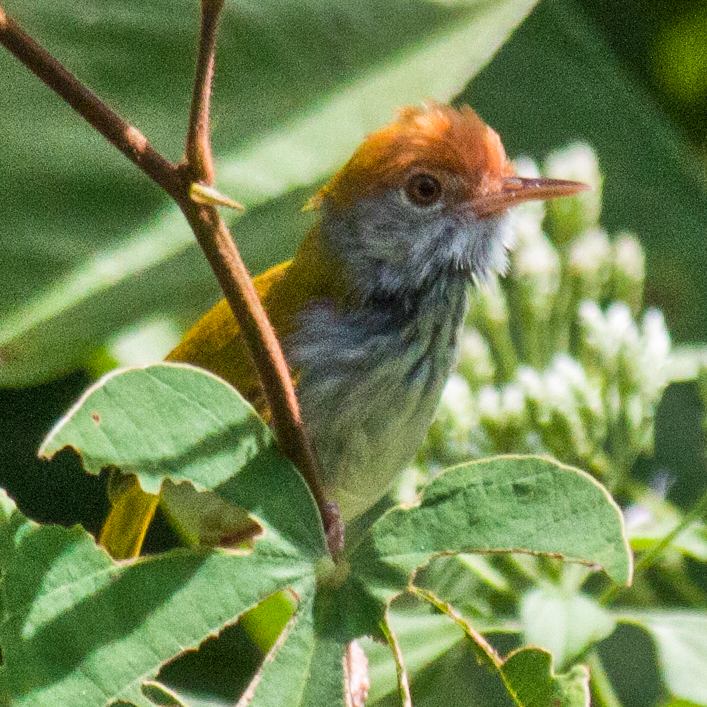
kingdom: Animalia
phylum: Chordata
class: Aves
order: Passeriformes
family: Cisticolidae
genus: Orthotomus
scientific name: Orthotomus atrogularis
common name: Dark-necked tailorbird
